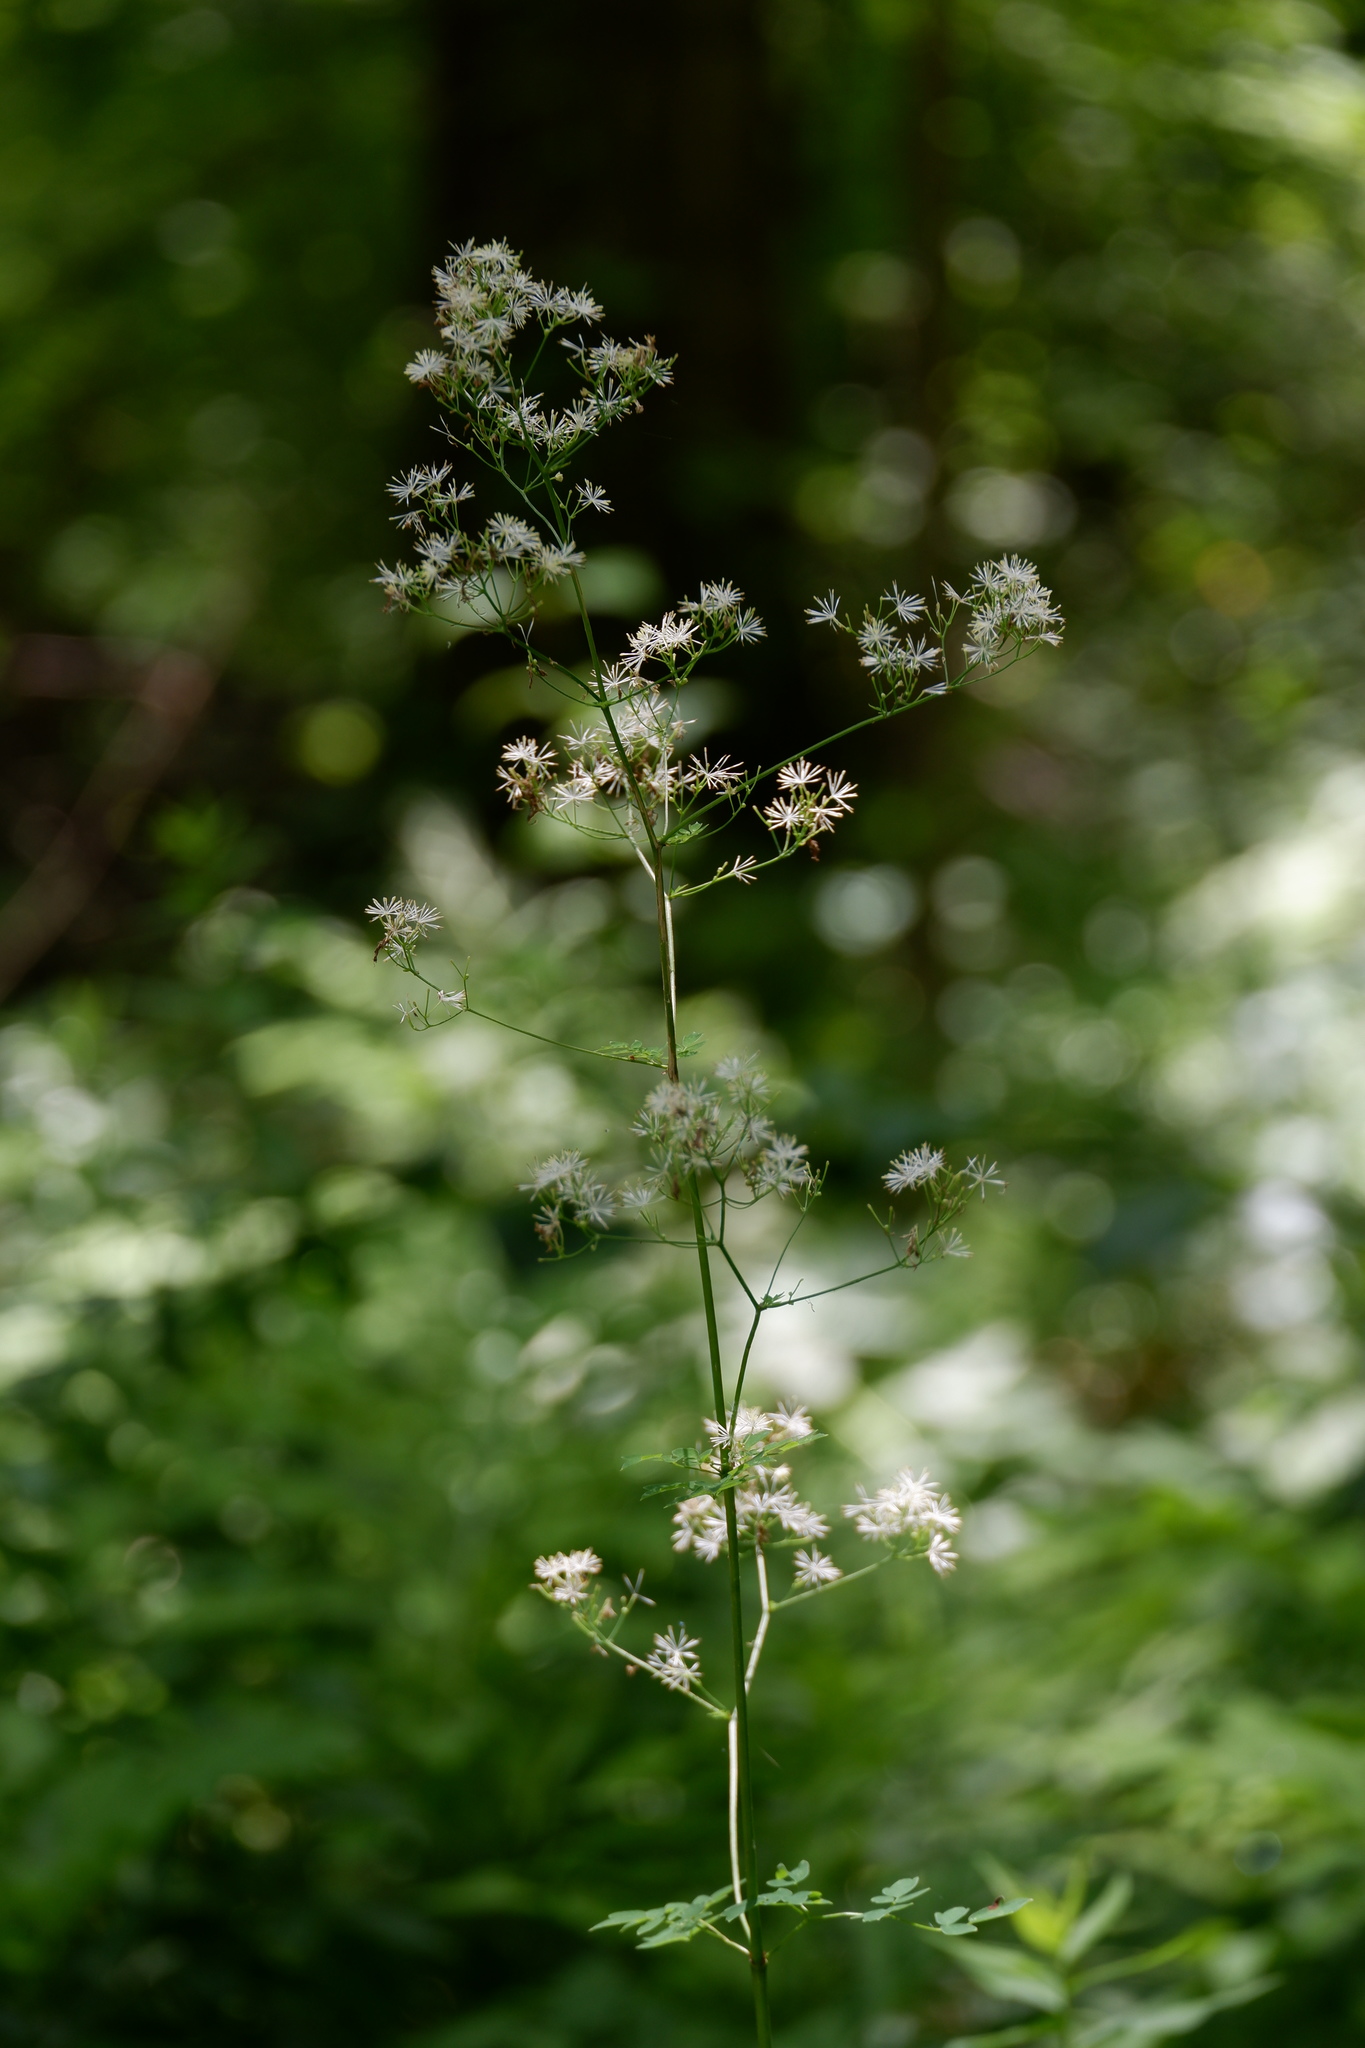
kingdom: Plantae
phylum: Tracheophyta
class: Magnoliopsida
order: Ranunculales
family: Ranunculaceae
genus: Thalictrum
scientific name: Thalictrum pubescens
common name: King-of-the-meadow
